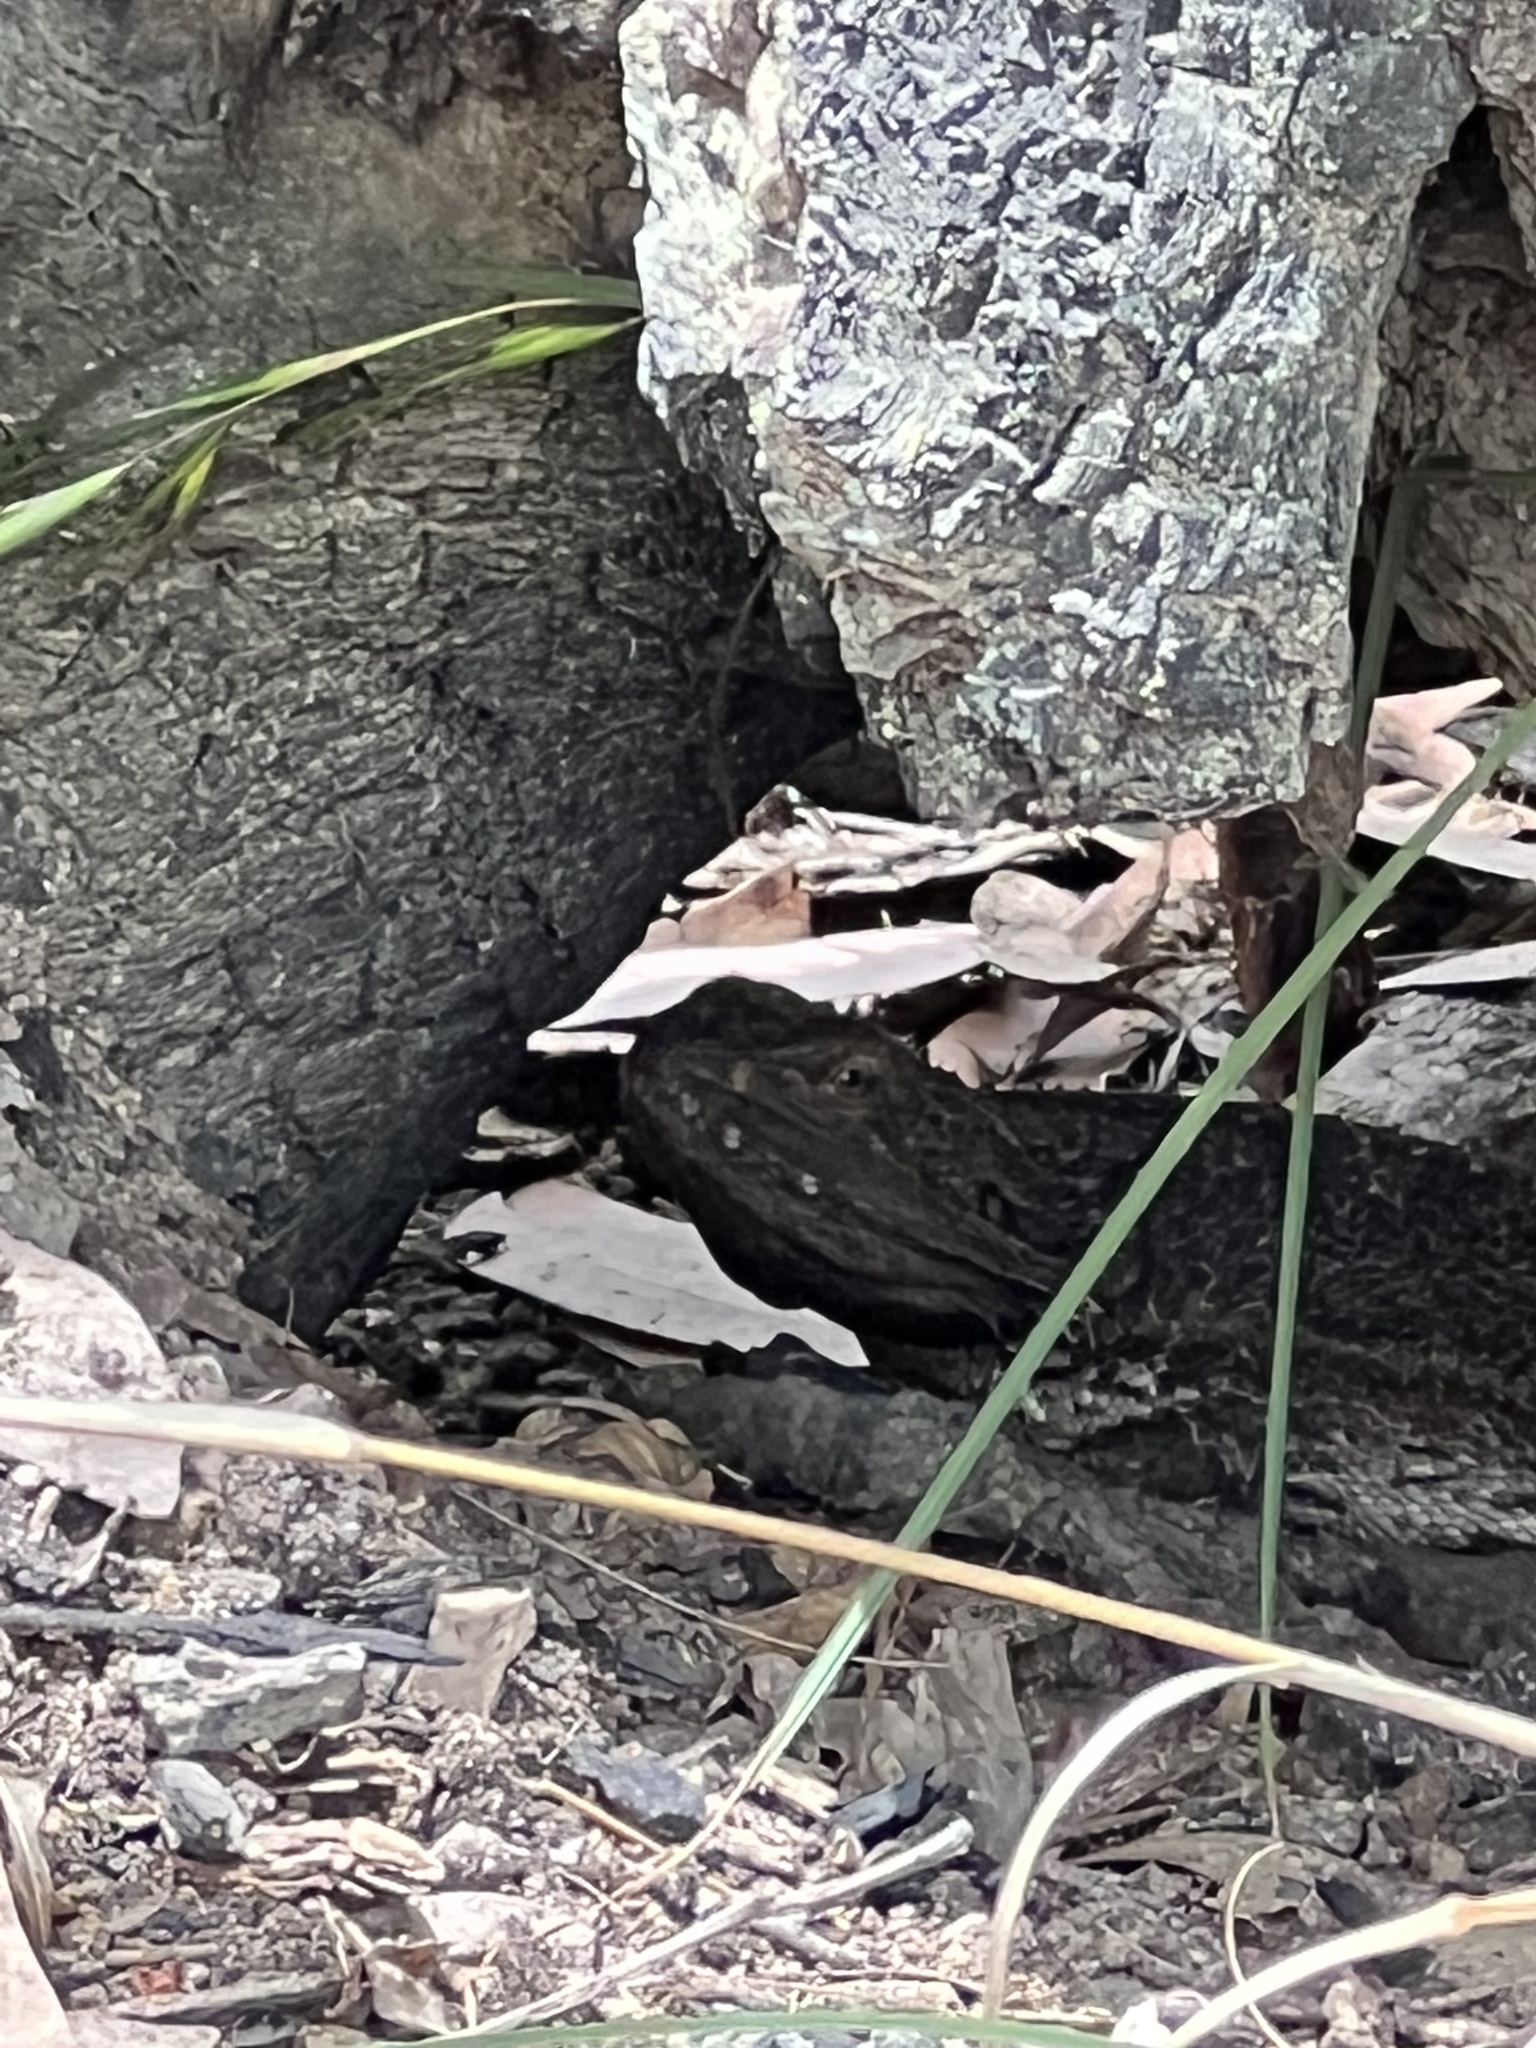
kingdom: Animalia
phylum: Chordata
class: Squamata
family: Agamidae
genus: Pogona
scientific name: Pogona barbata
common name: Bearded dragon
